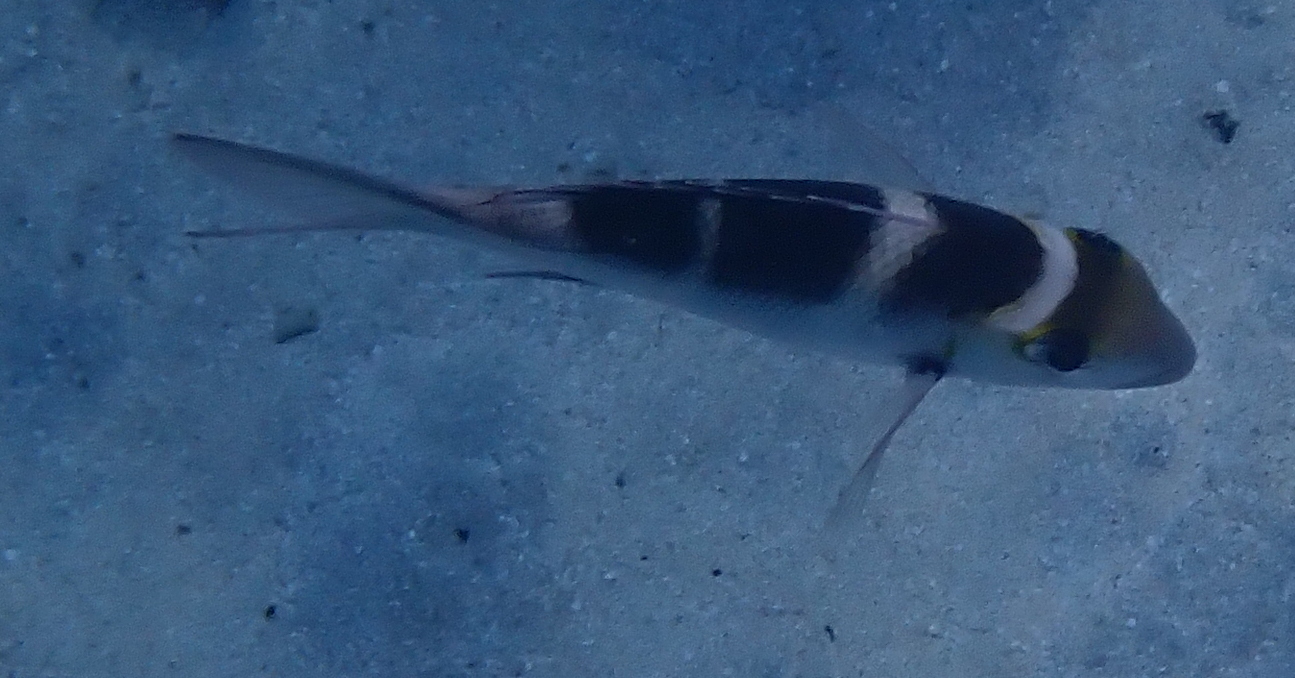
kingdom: Animalia
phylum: Chordata
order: Perciformes
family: Lethrinidae
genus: Monotaxis
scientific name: Monotaxis grandoculis
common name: Bigeye emperor
